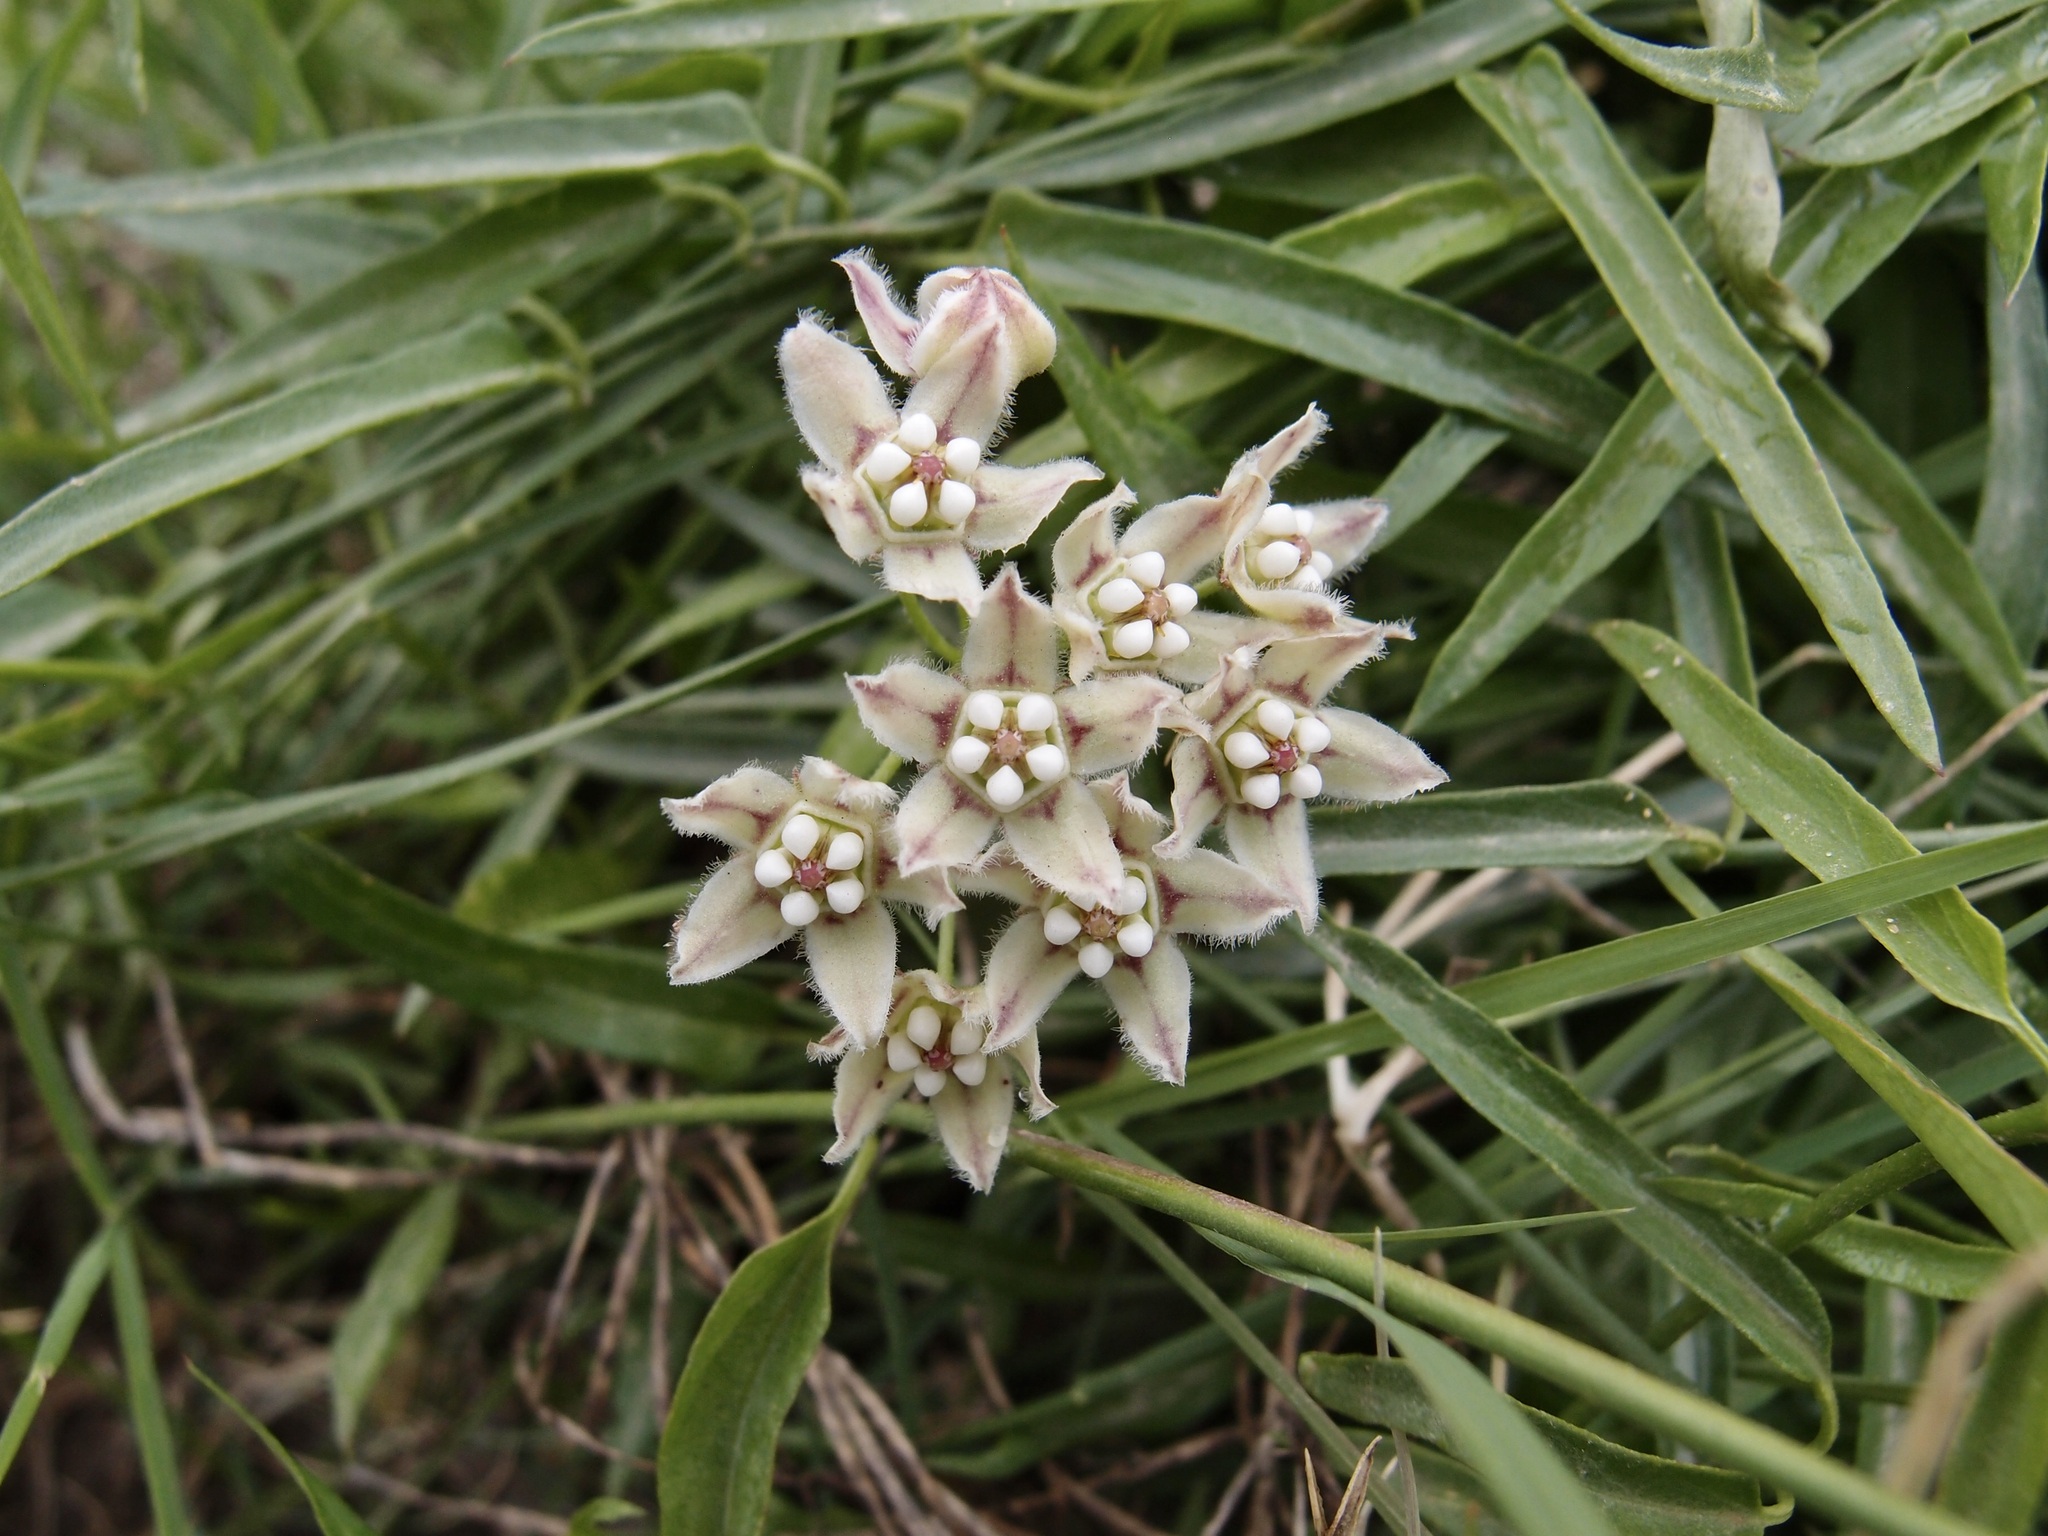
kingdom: Plantae
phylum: Tracheophyta
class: Magnoliopsida
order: Gentianales
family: Apocynaceae
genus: Funastrum
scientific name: Funastrum heterophyllum
